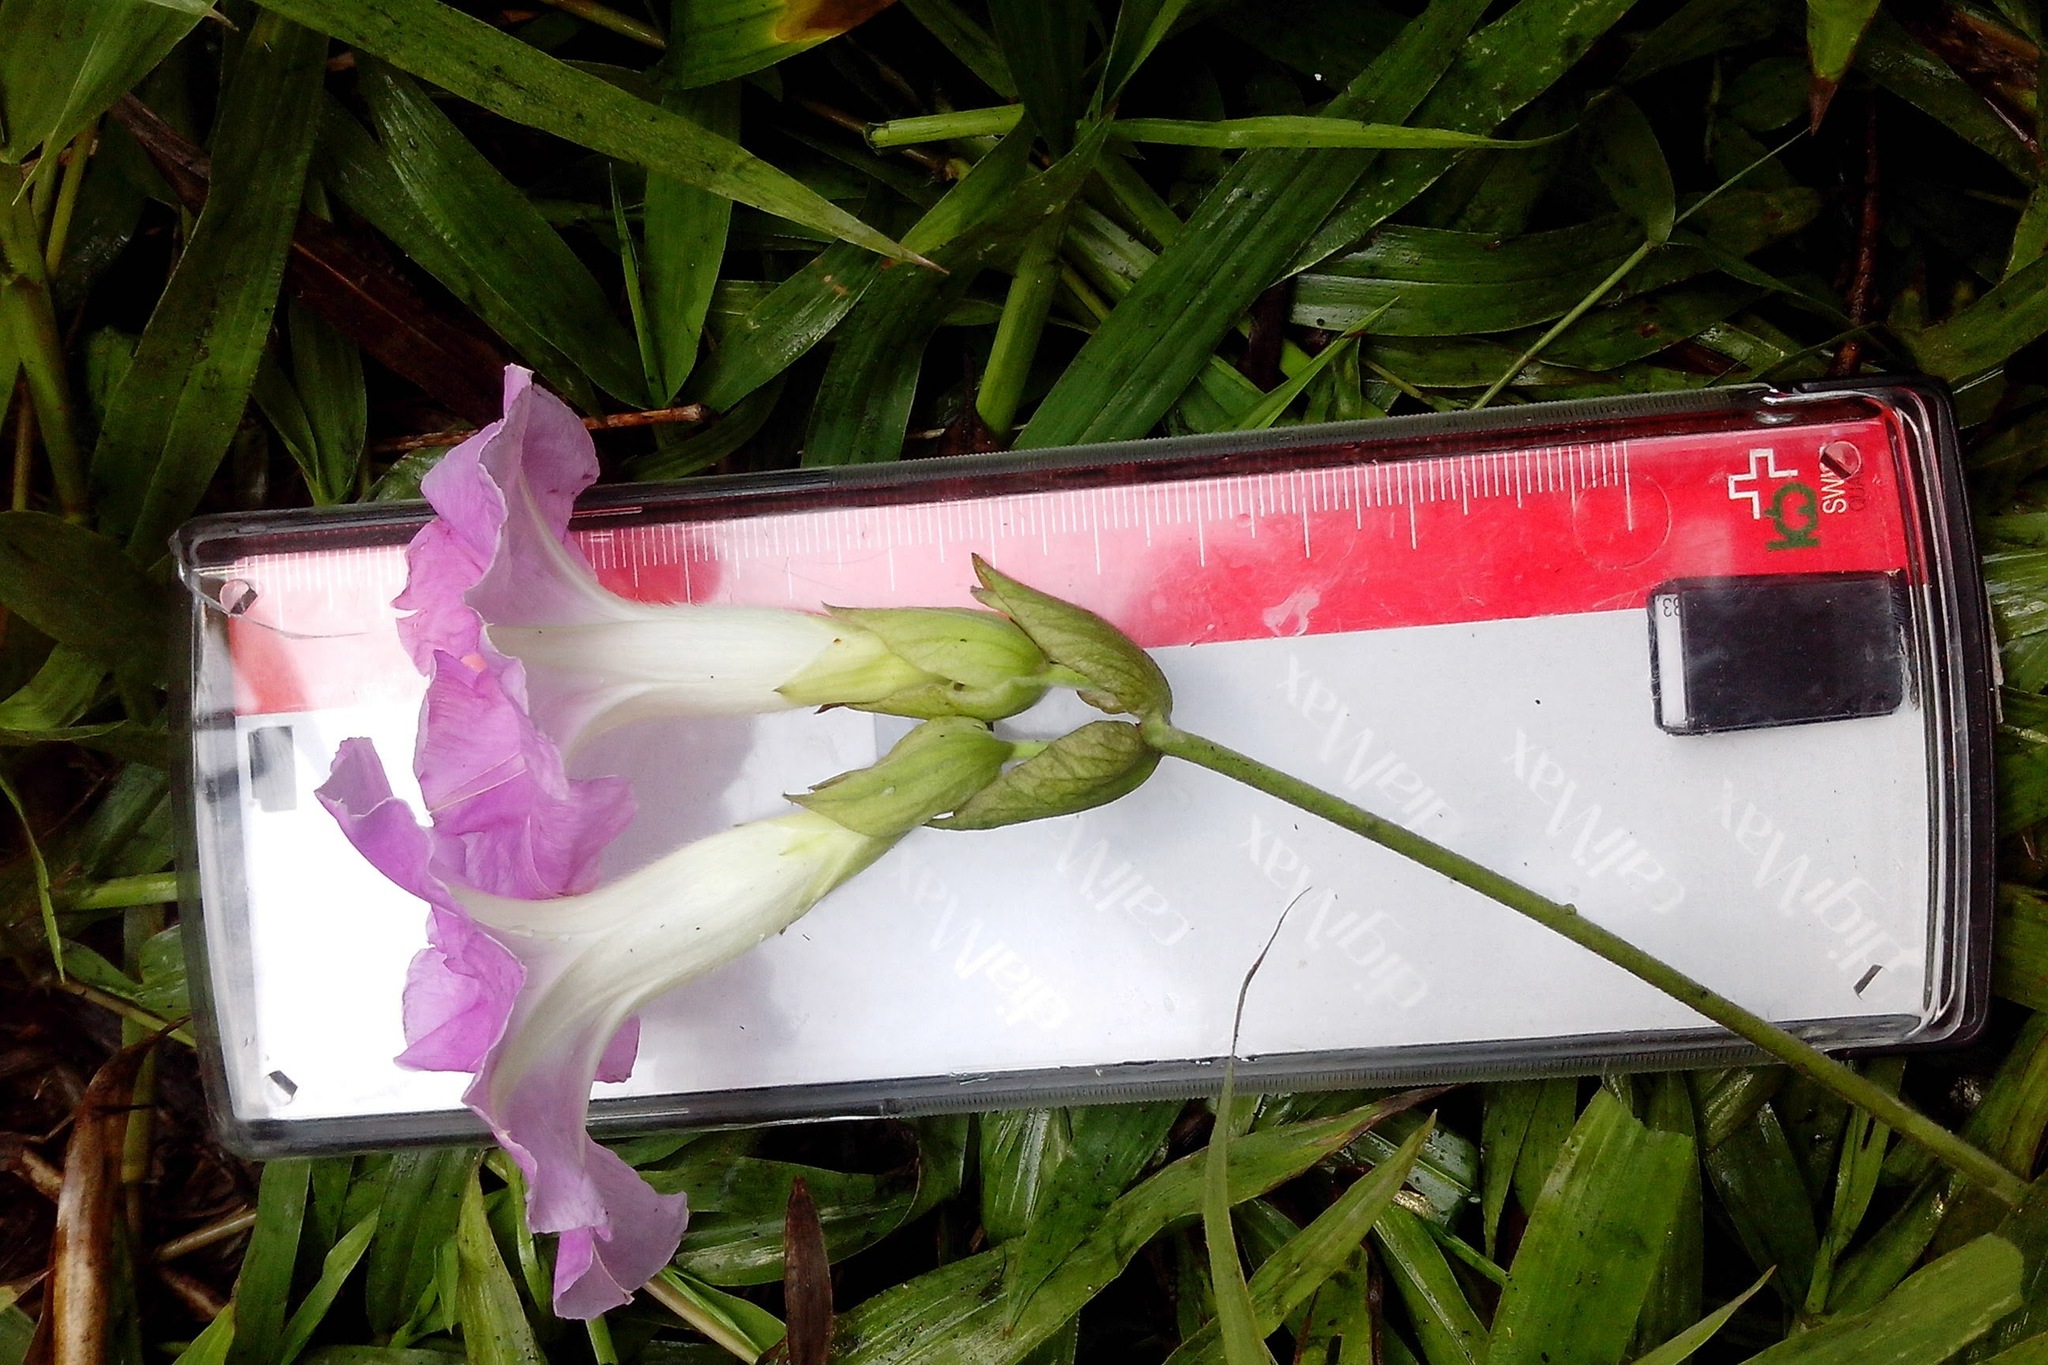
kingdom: Plantae
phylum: Tracheophyta
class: Magnoliopsida
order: Solanales
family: Convolvulaceae
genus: Ipomoea
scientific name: Ipomoea mairetii
